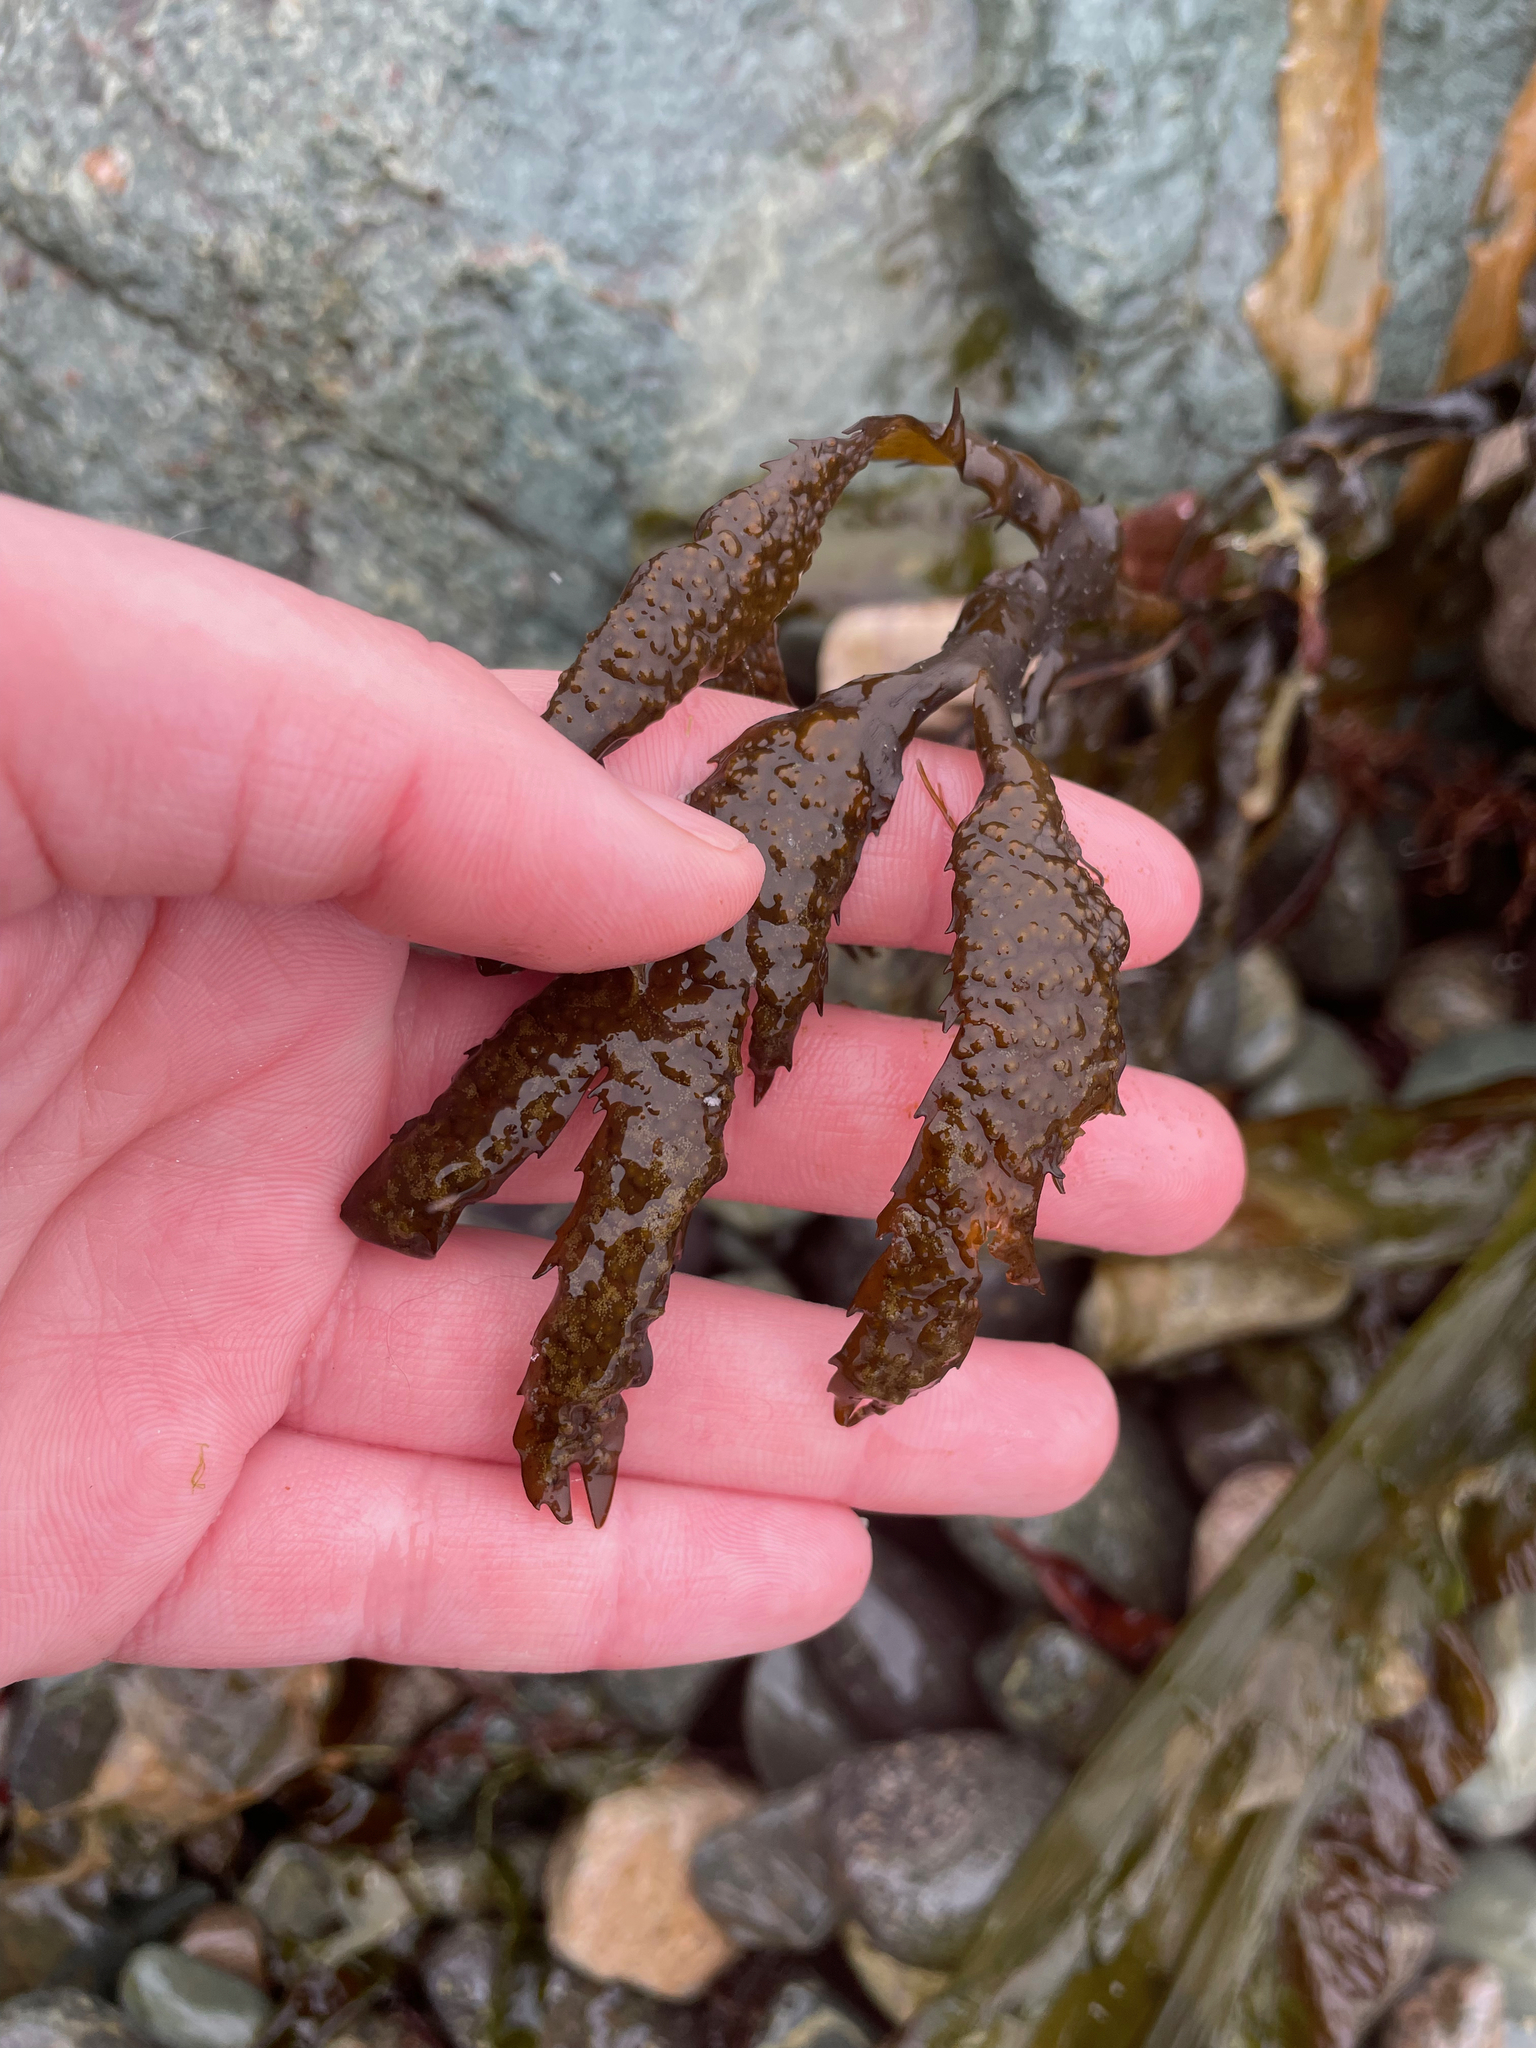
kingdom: Chromista
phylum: Ochrophyta
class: Phaeophyceae
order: Fucales
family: Fucaceae
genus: Fucus
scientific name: Fucus serratus
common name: Toothed wrack
